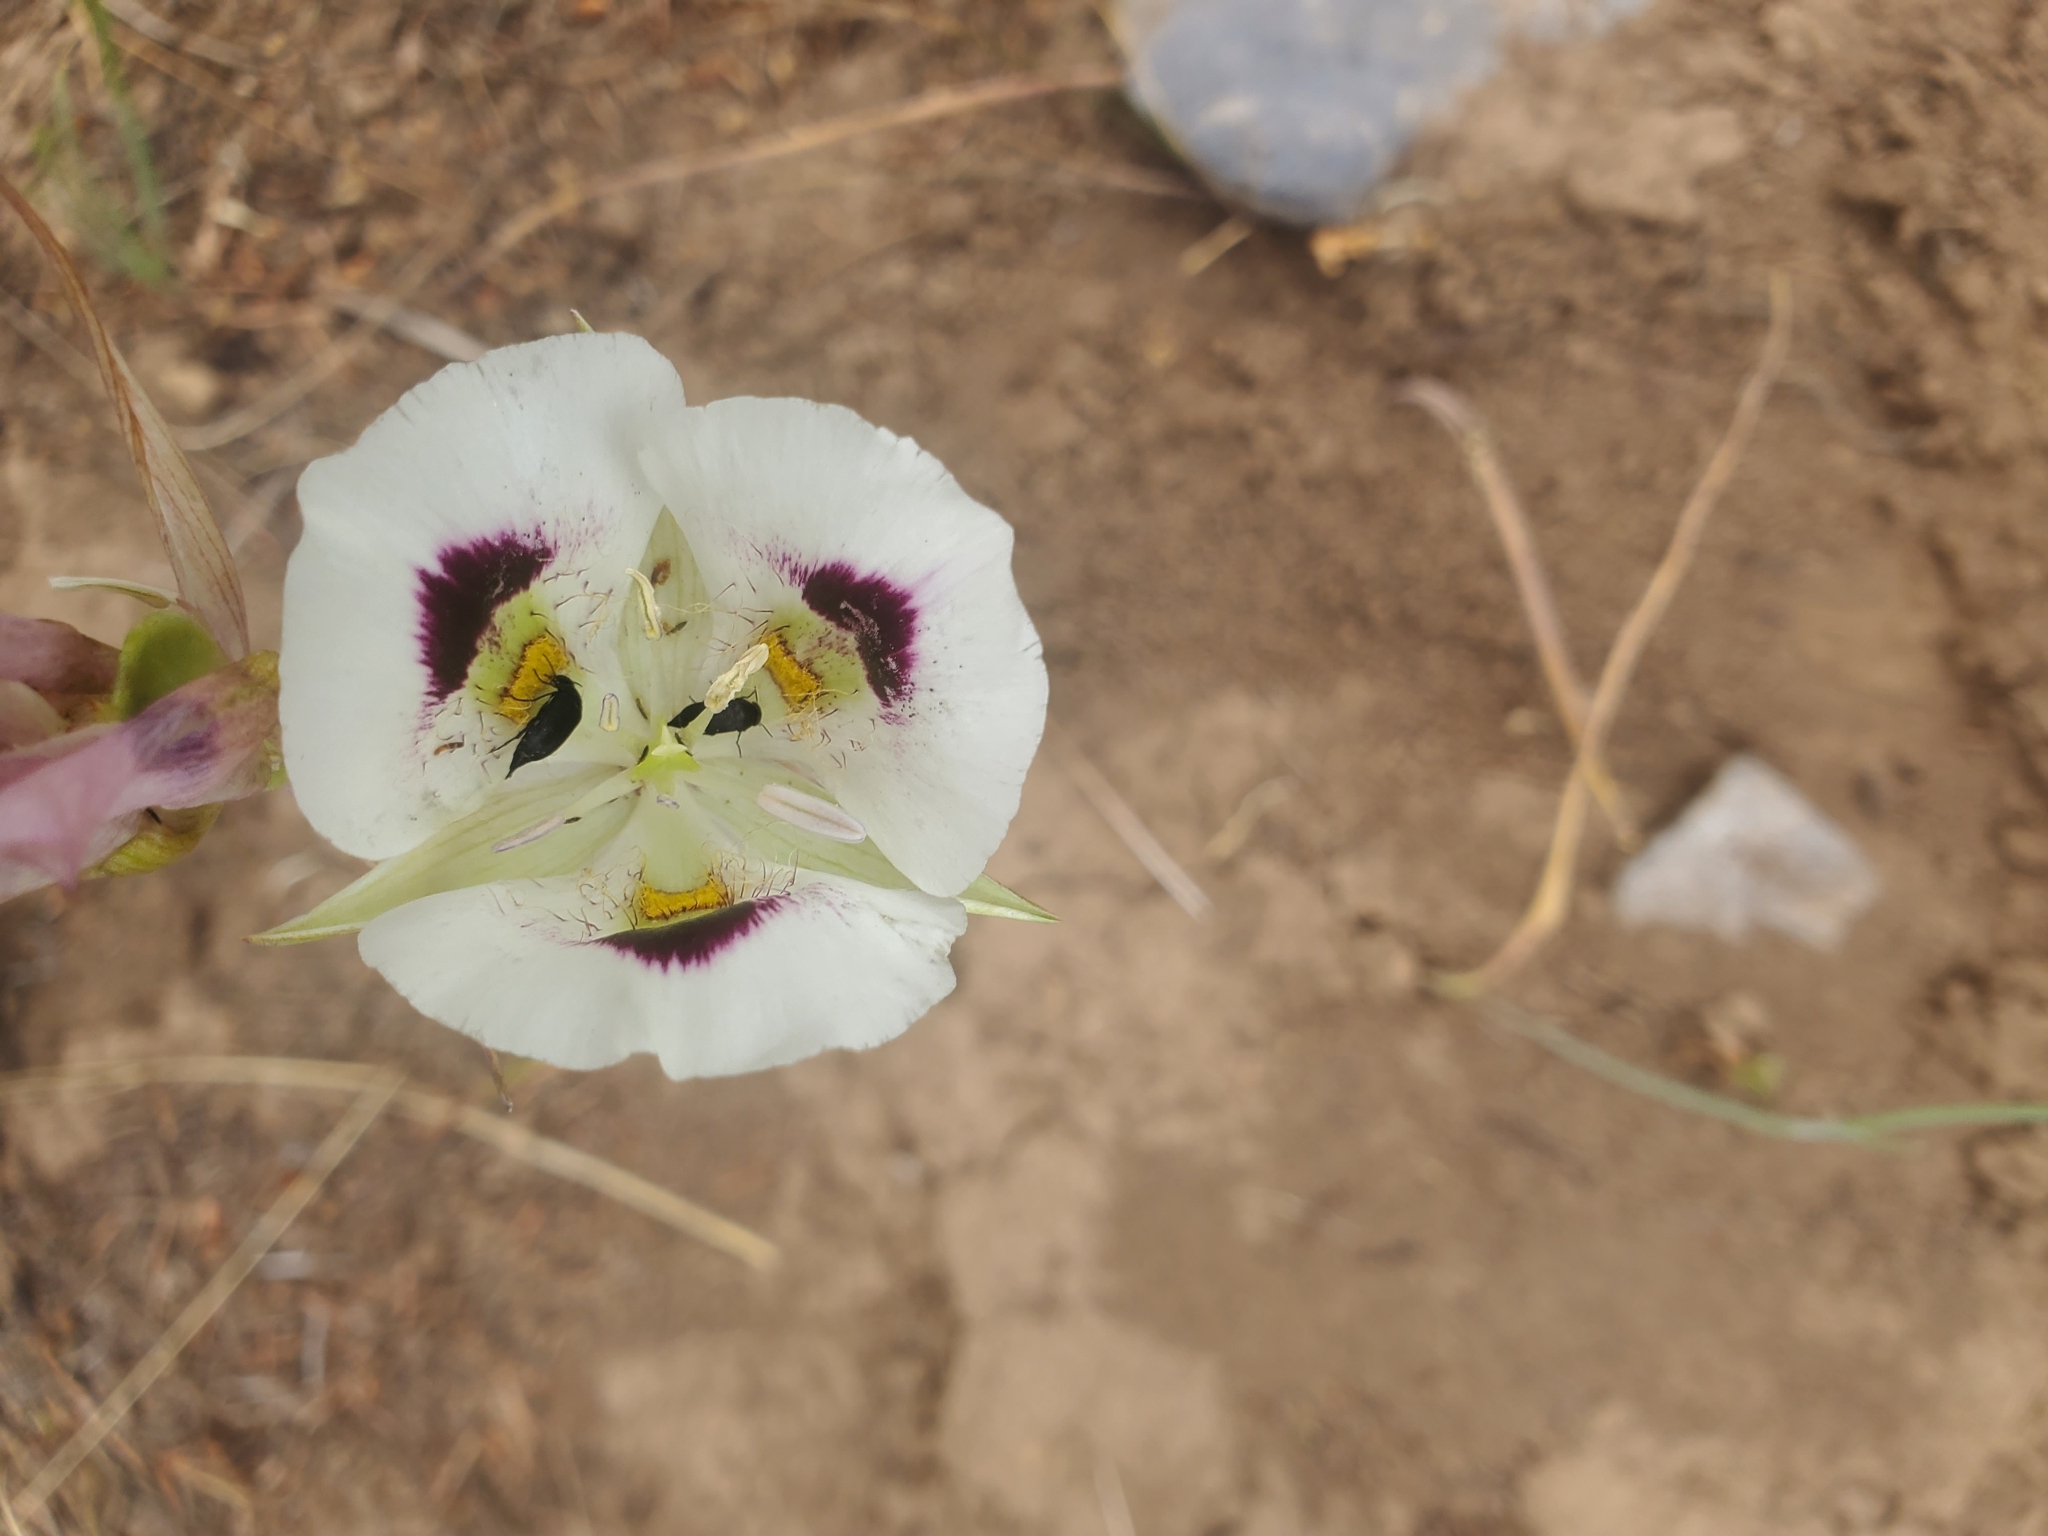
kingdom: Plantae
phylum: Tracheophyta
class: Liliopsida
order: Liliales
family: Liliaceae
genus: Calochortus
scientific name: Calochortus eurycarpus
